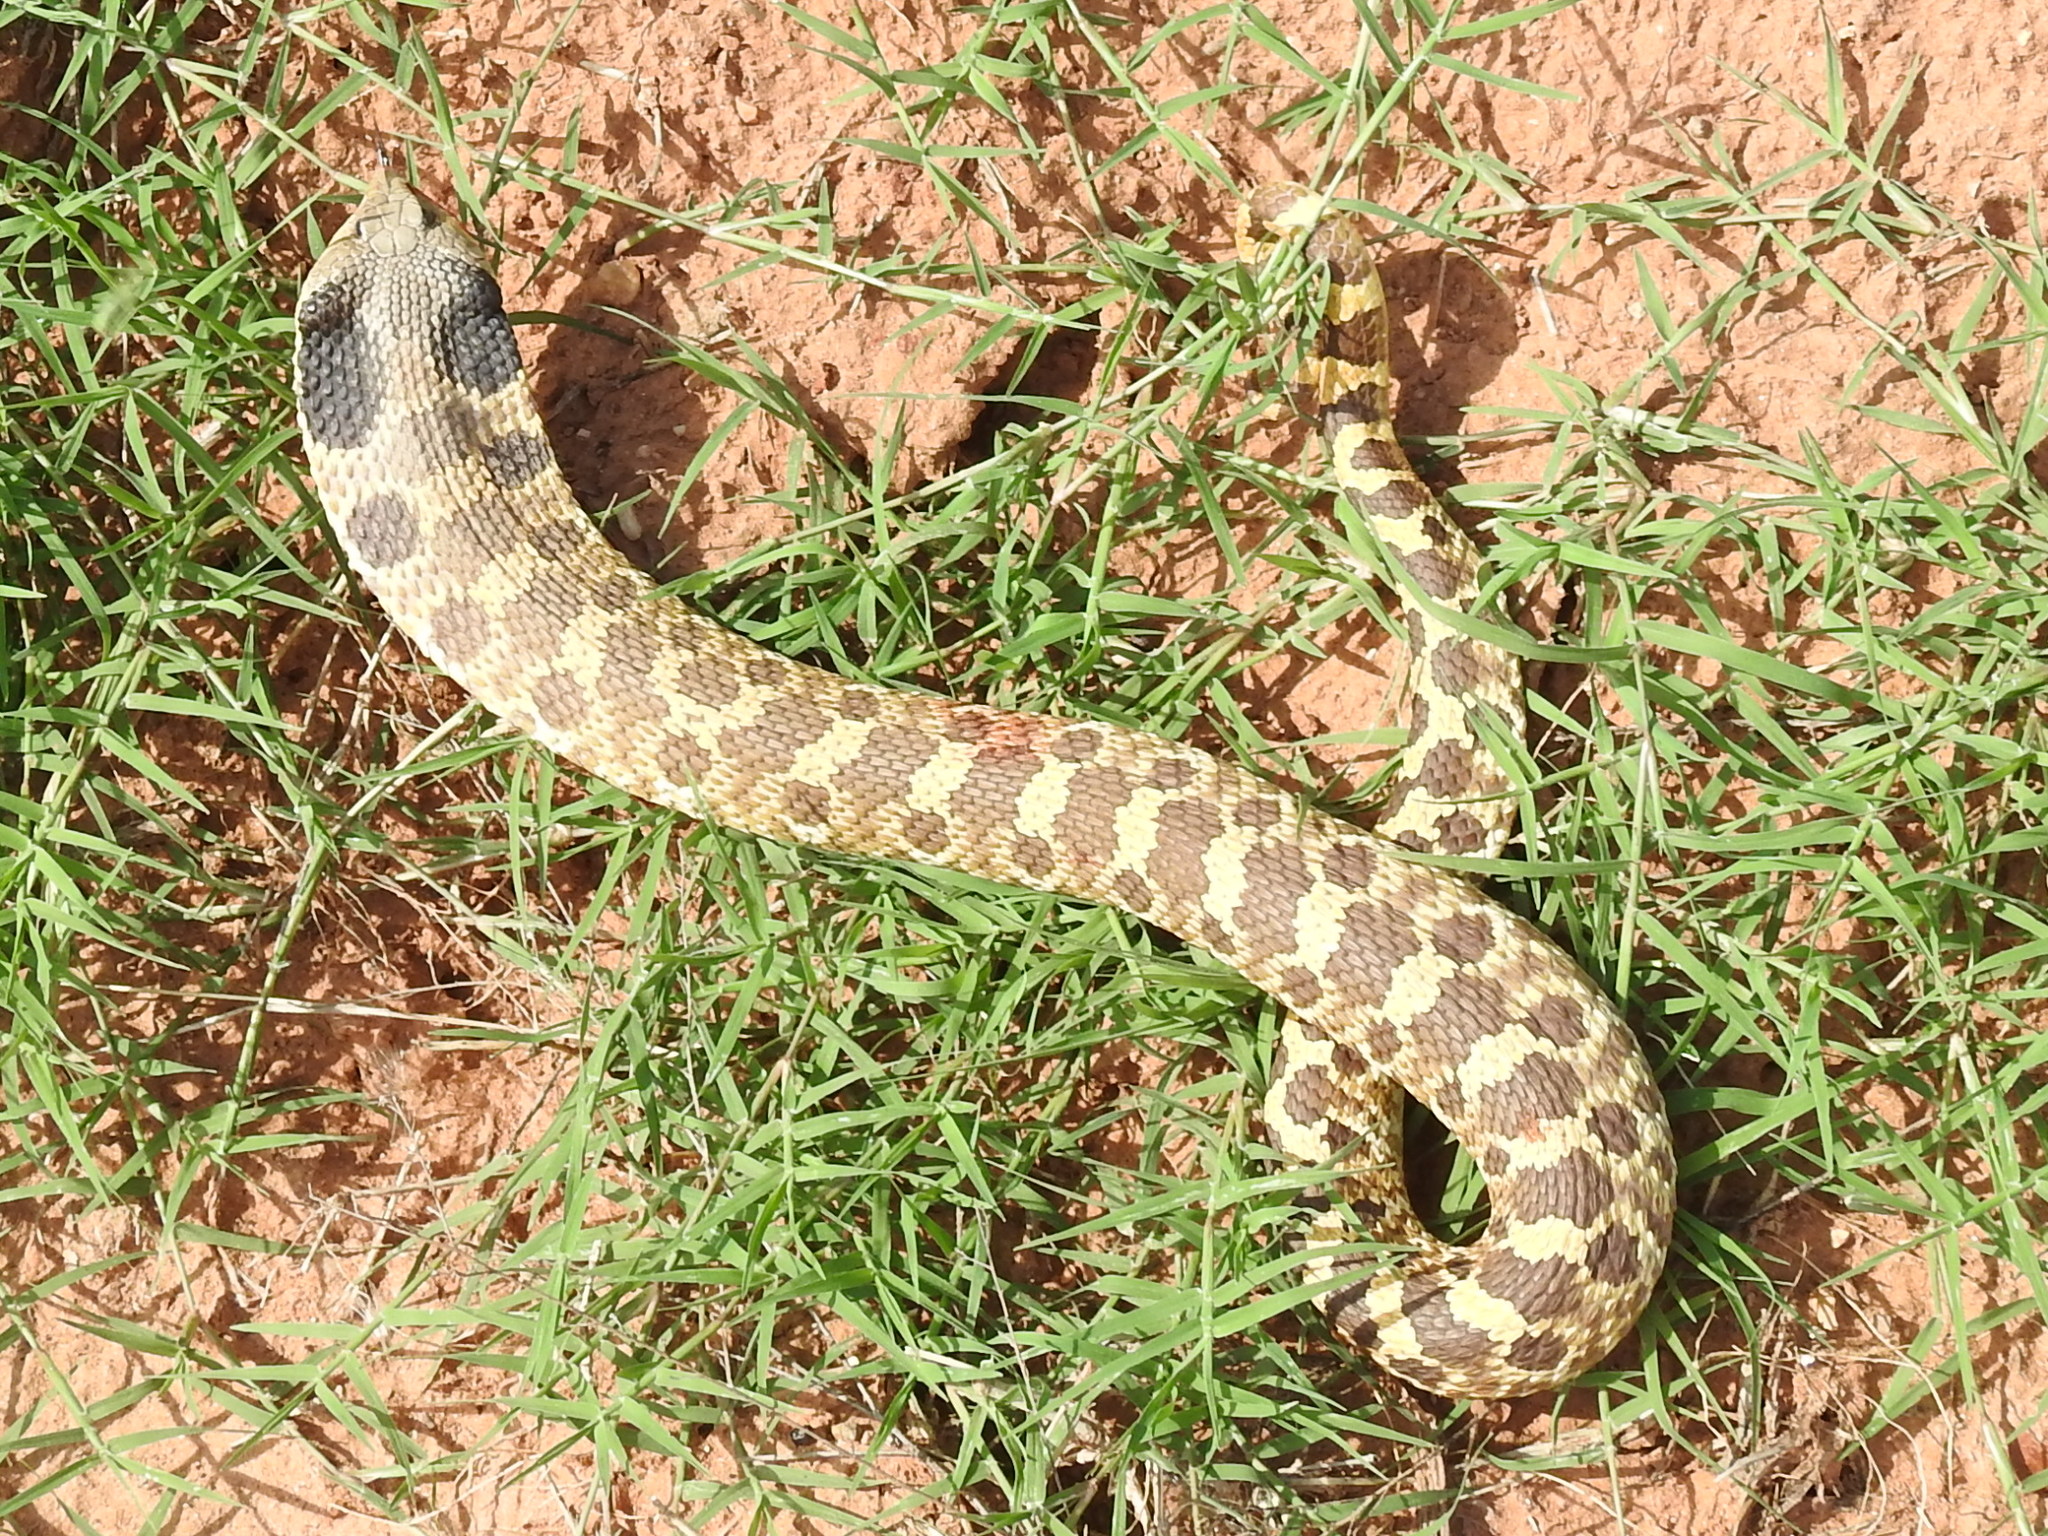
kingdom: Animalia
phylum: Chordata
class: Squamata
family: Colubridae
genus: Heterodon
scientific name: Heterodon platirhinos
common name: Eastern hognose snake
